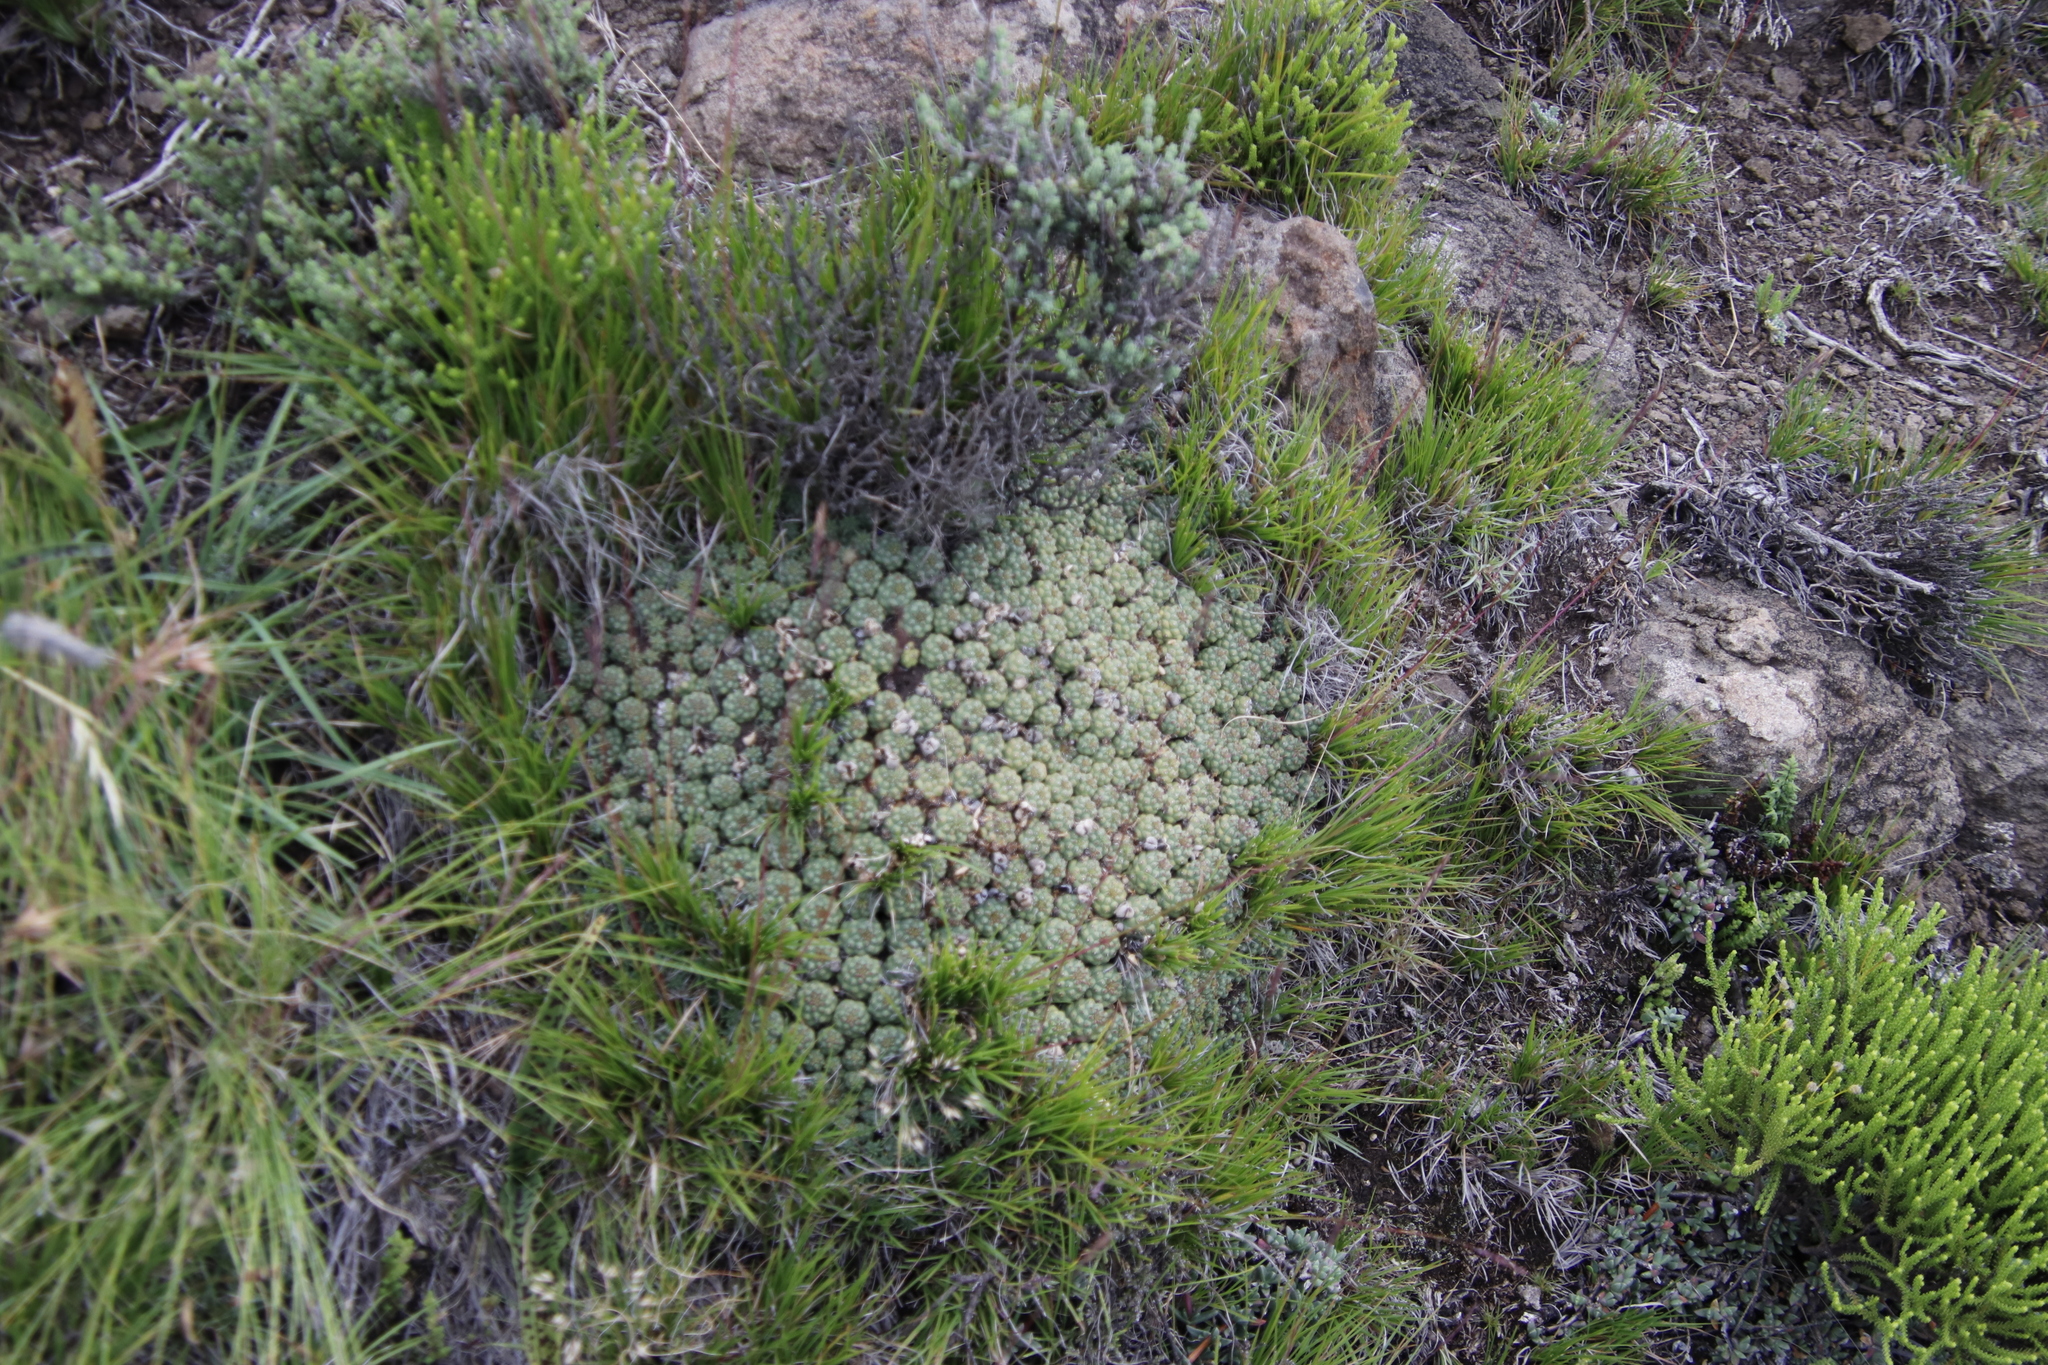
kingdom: Plantae
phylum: Tracheophyta
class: Magnoliopsida
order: Malpighiales
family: Euphorbiaceae
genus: Euphorbia
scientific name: Euphorbia clavarioides
